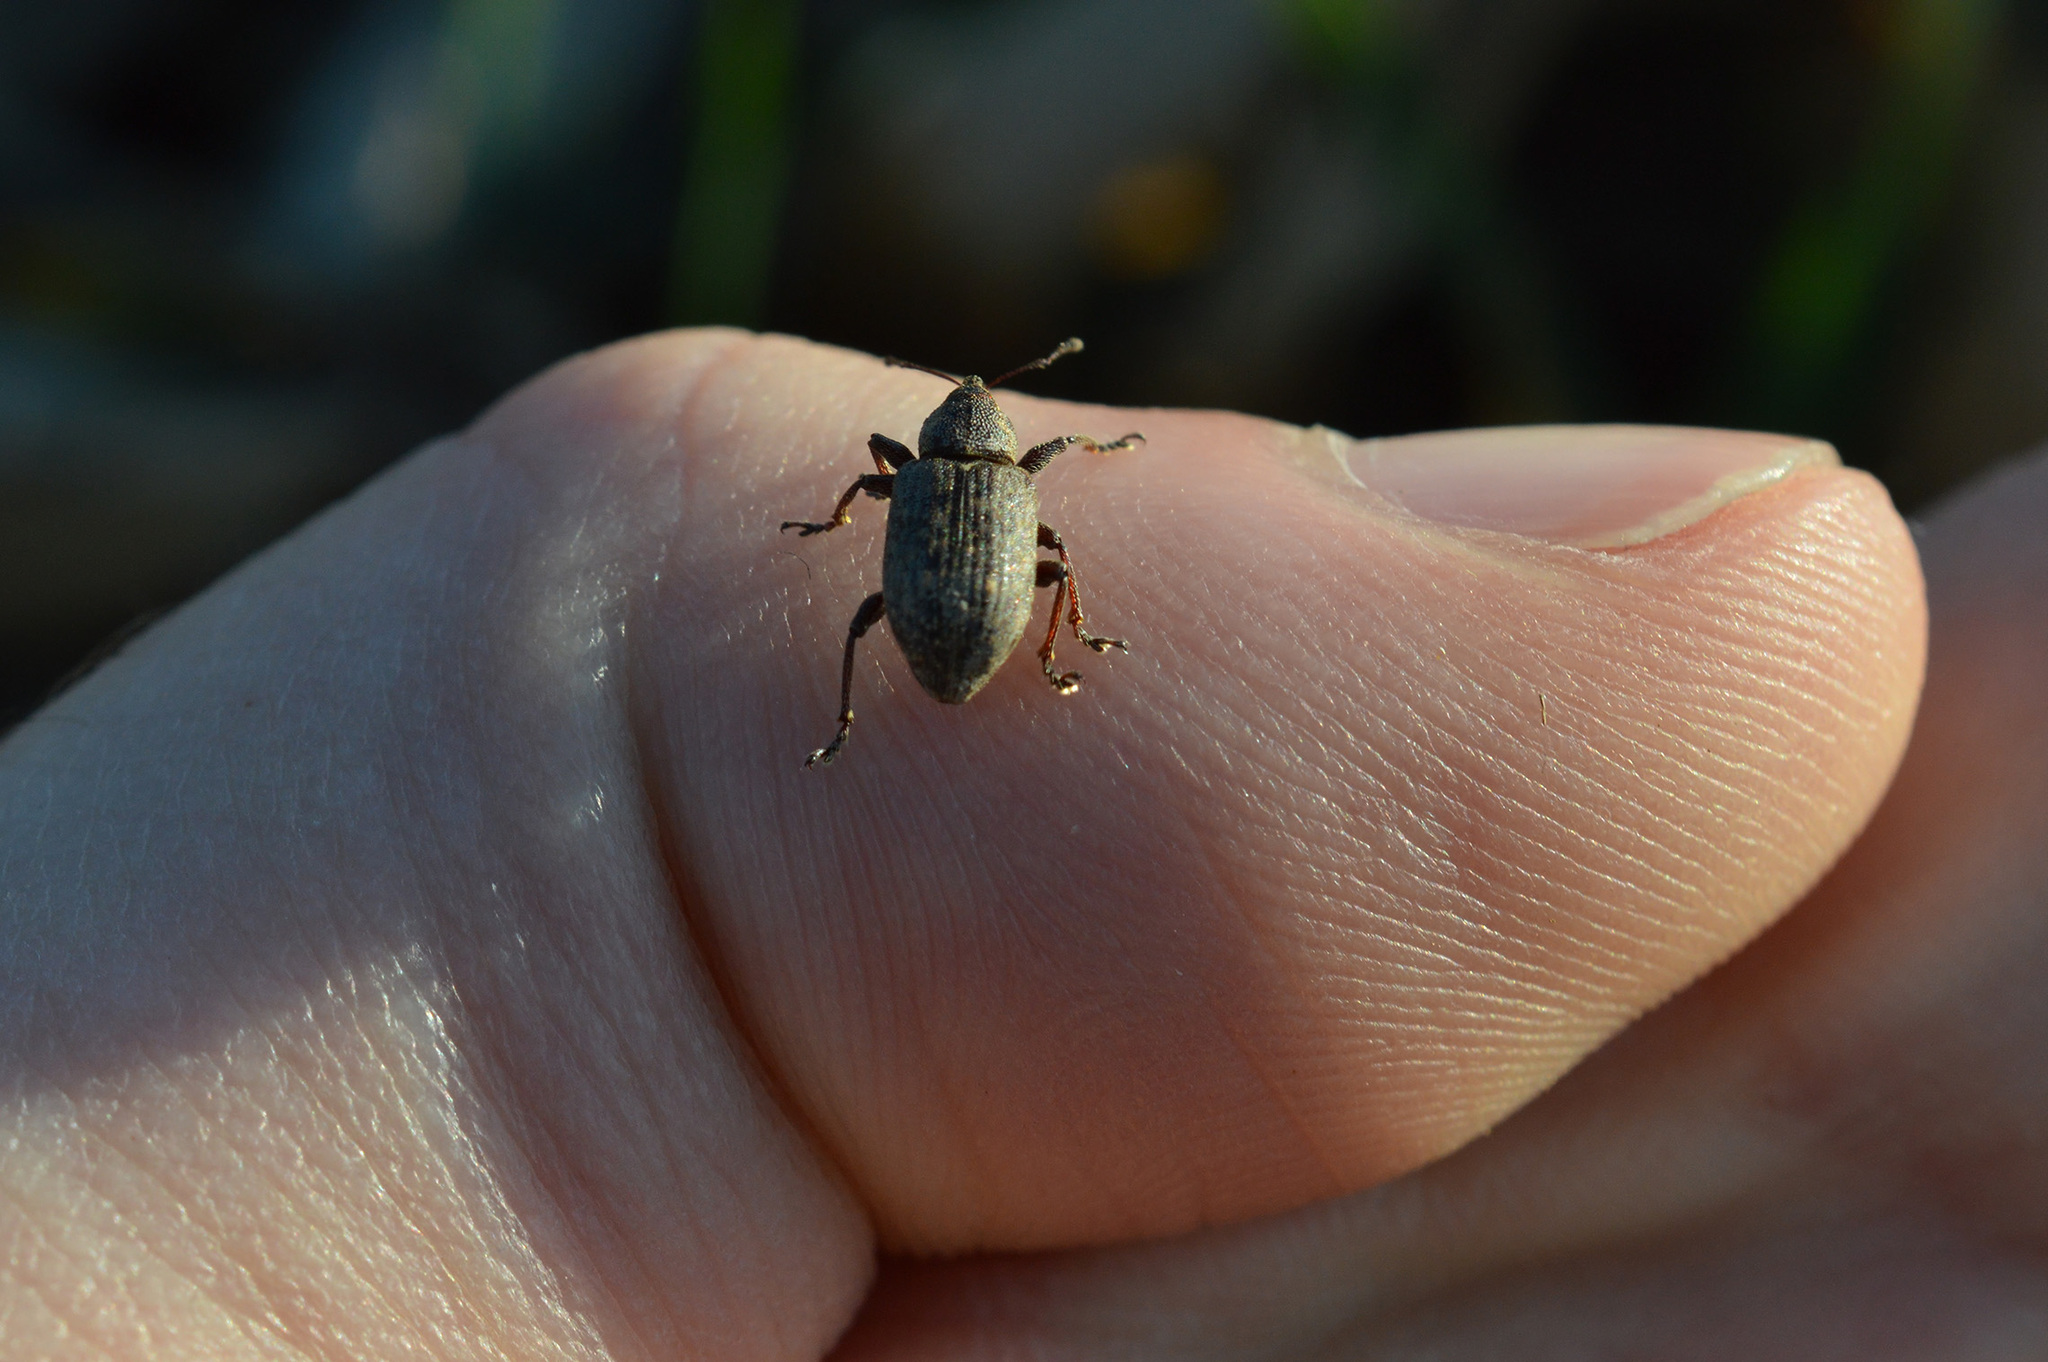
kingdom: Animalia
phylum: Arthropoda
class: Insecta
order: Coleoptera
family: Brachyceridae
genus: Notaris
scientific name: Notaris scirpi
